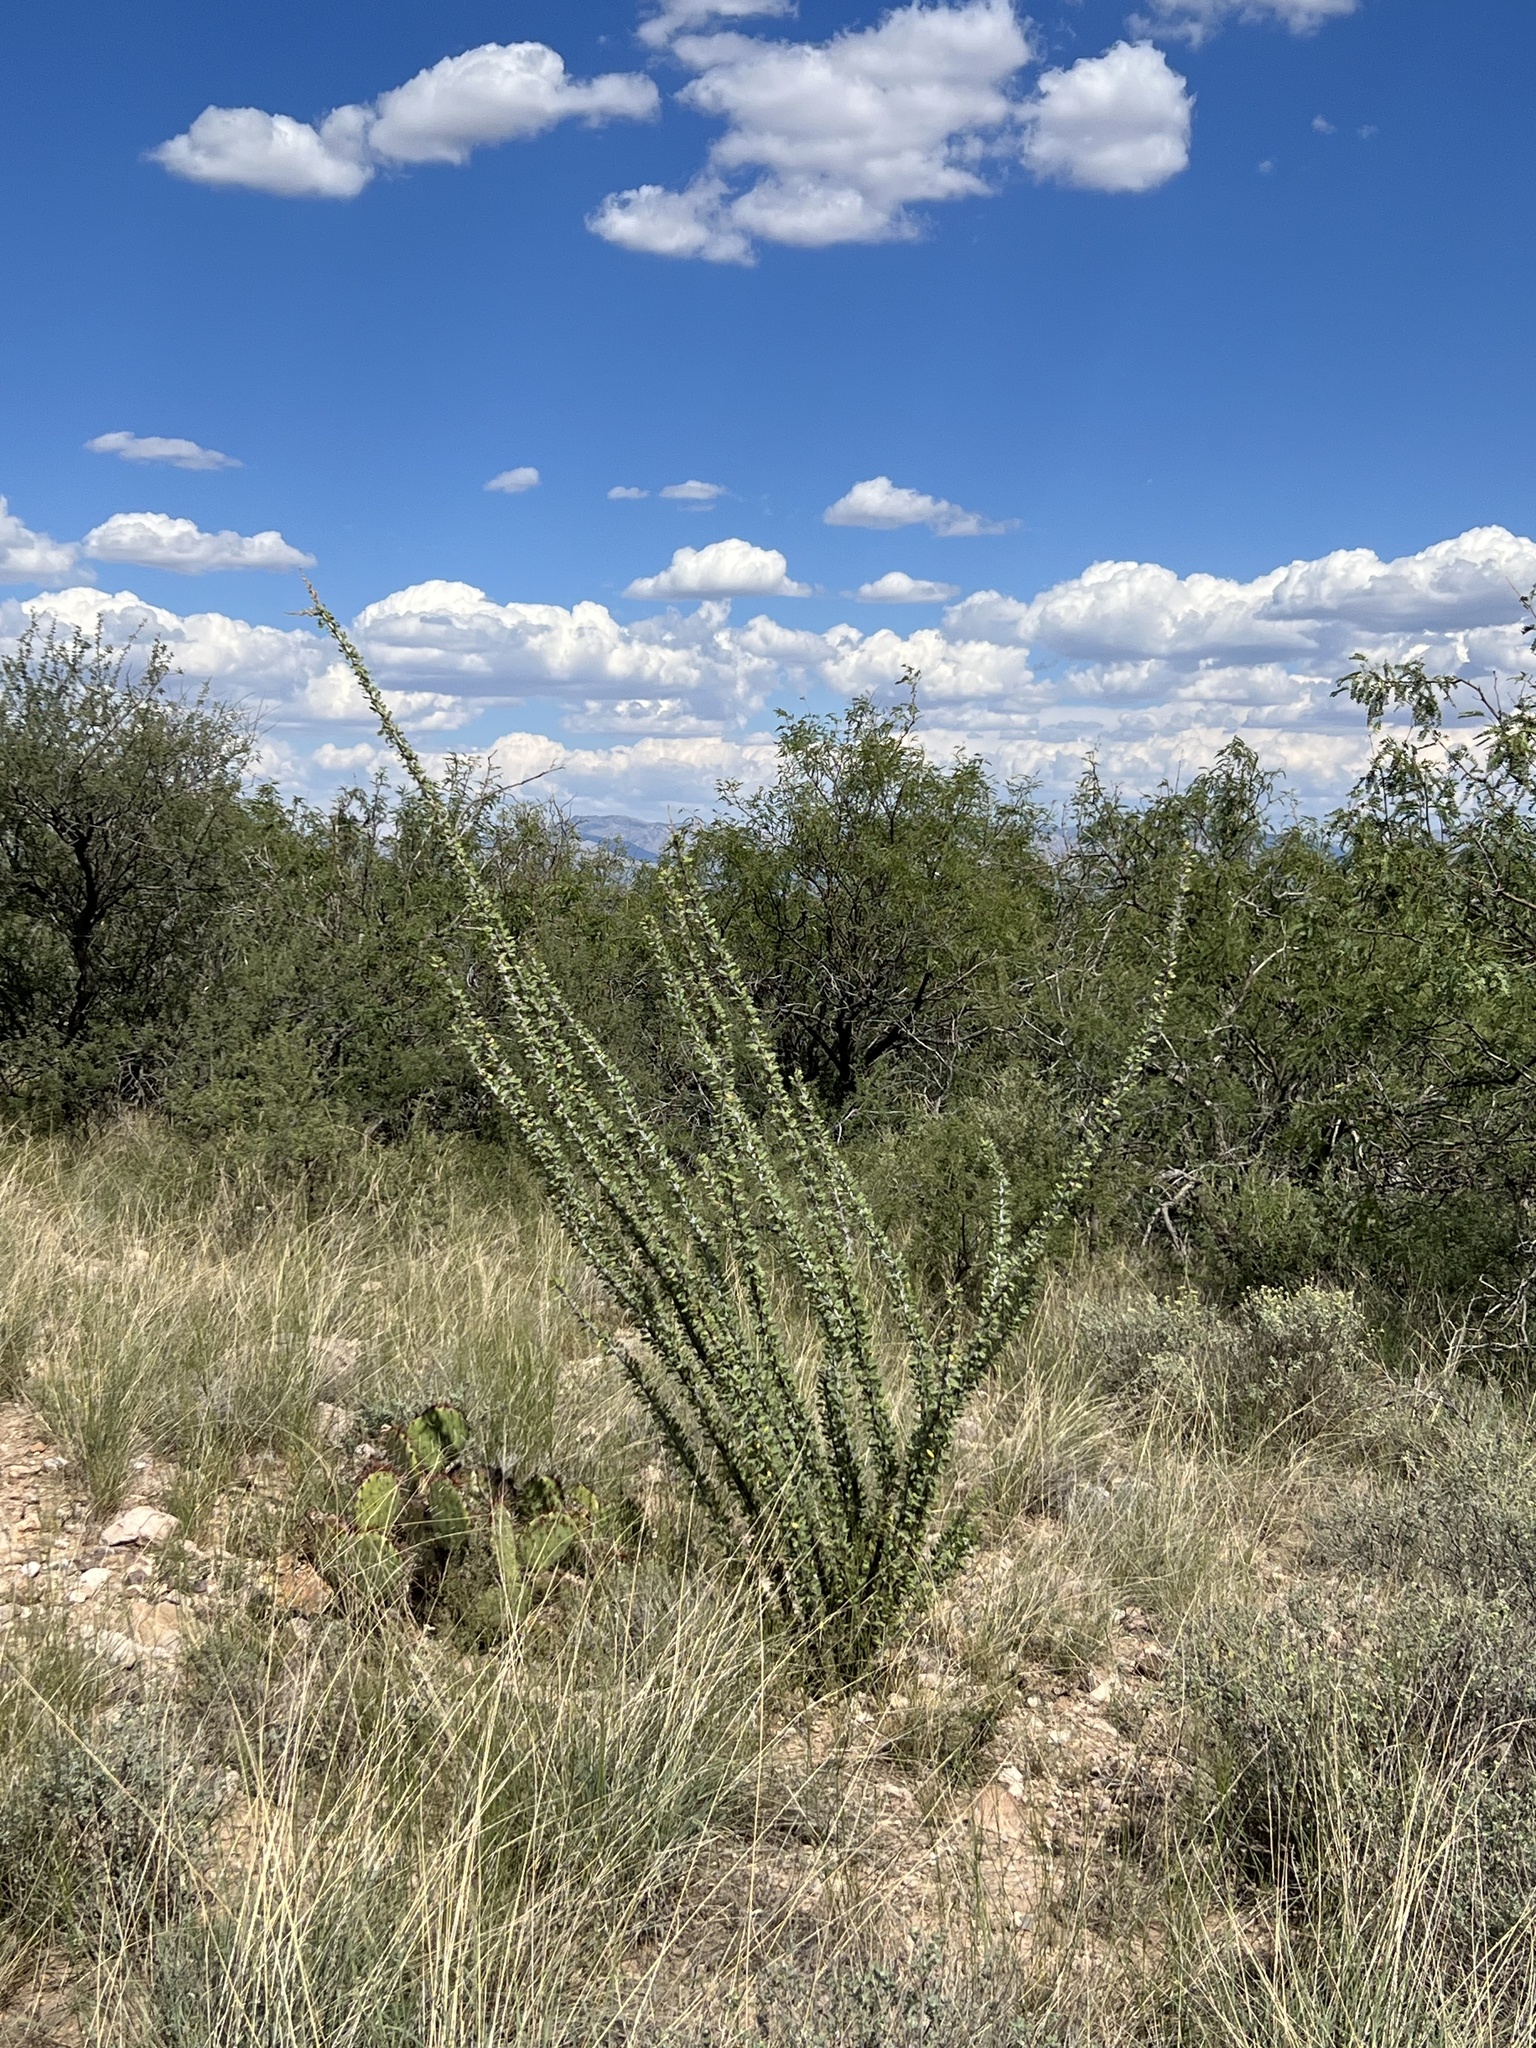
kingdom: Plantae
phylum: Tracheophyta
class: Magnoliopsida
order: Ericales
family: Fouquieriaceae
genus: Fouquieria
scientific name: Fouquieria splendens
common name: Vine-cactus
